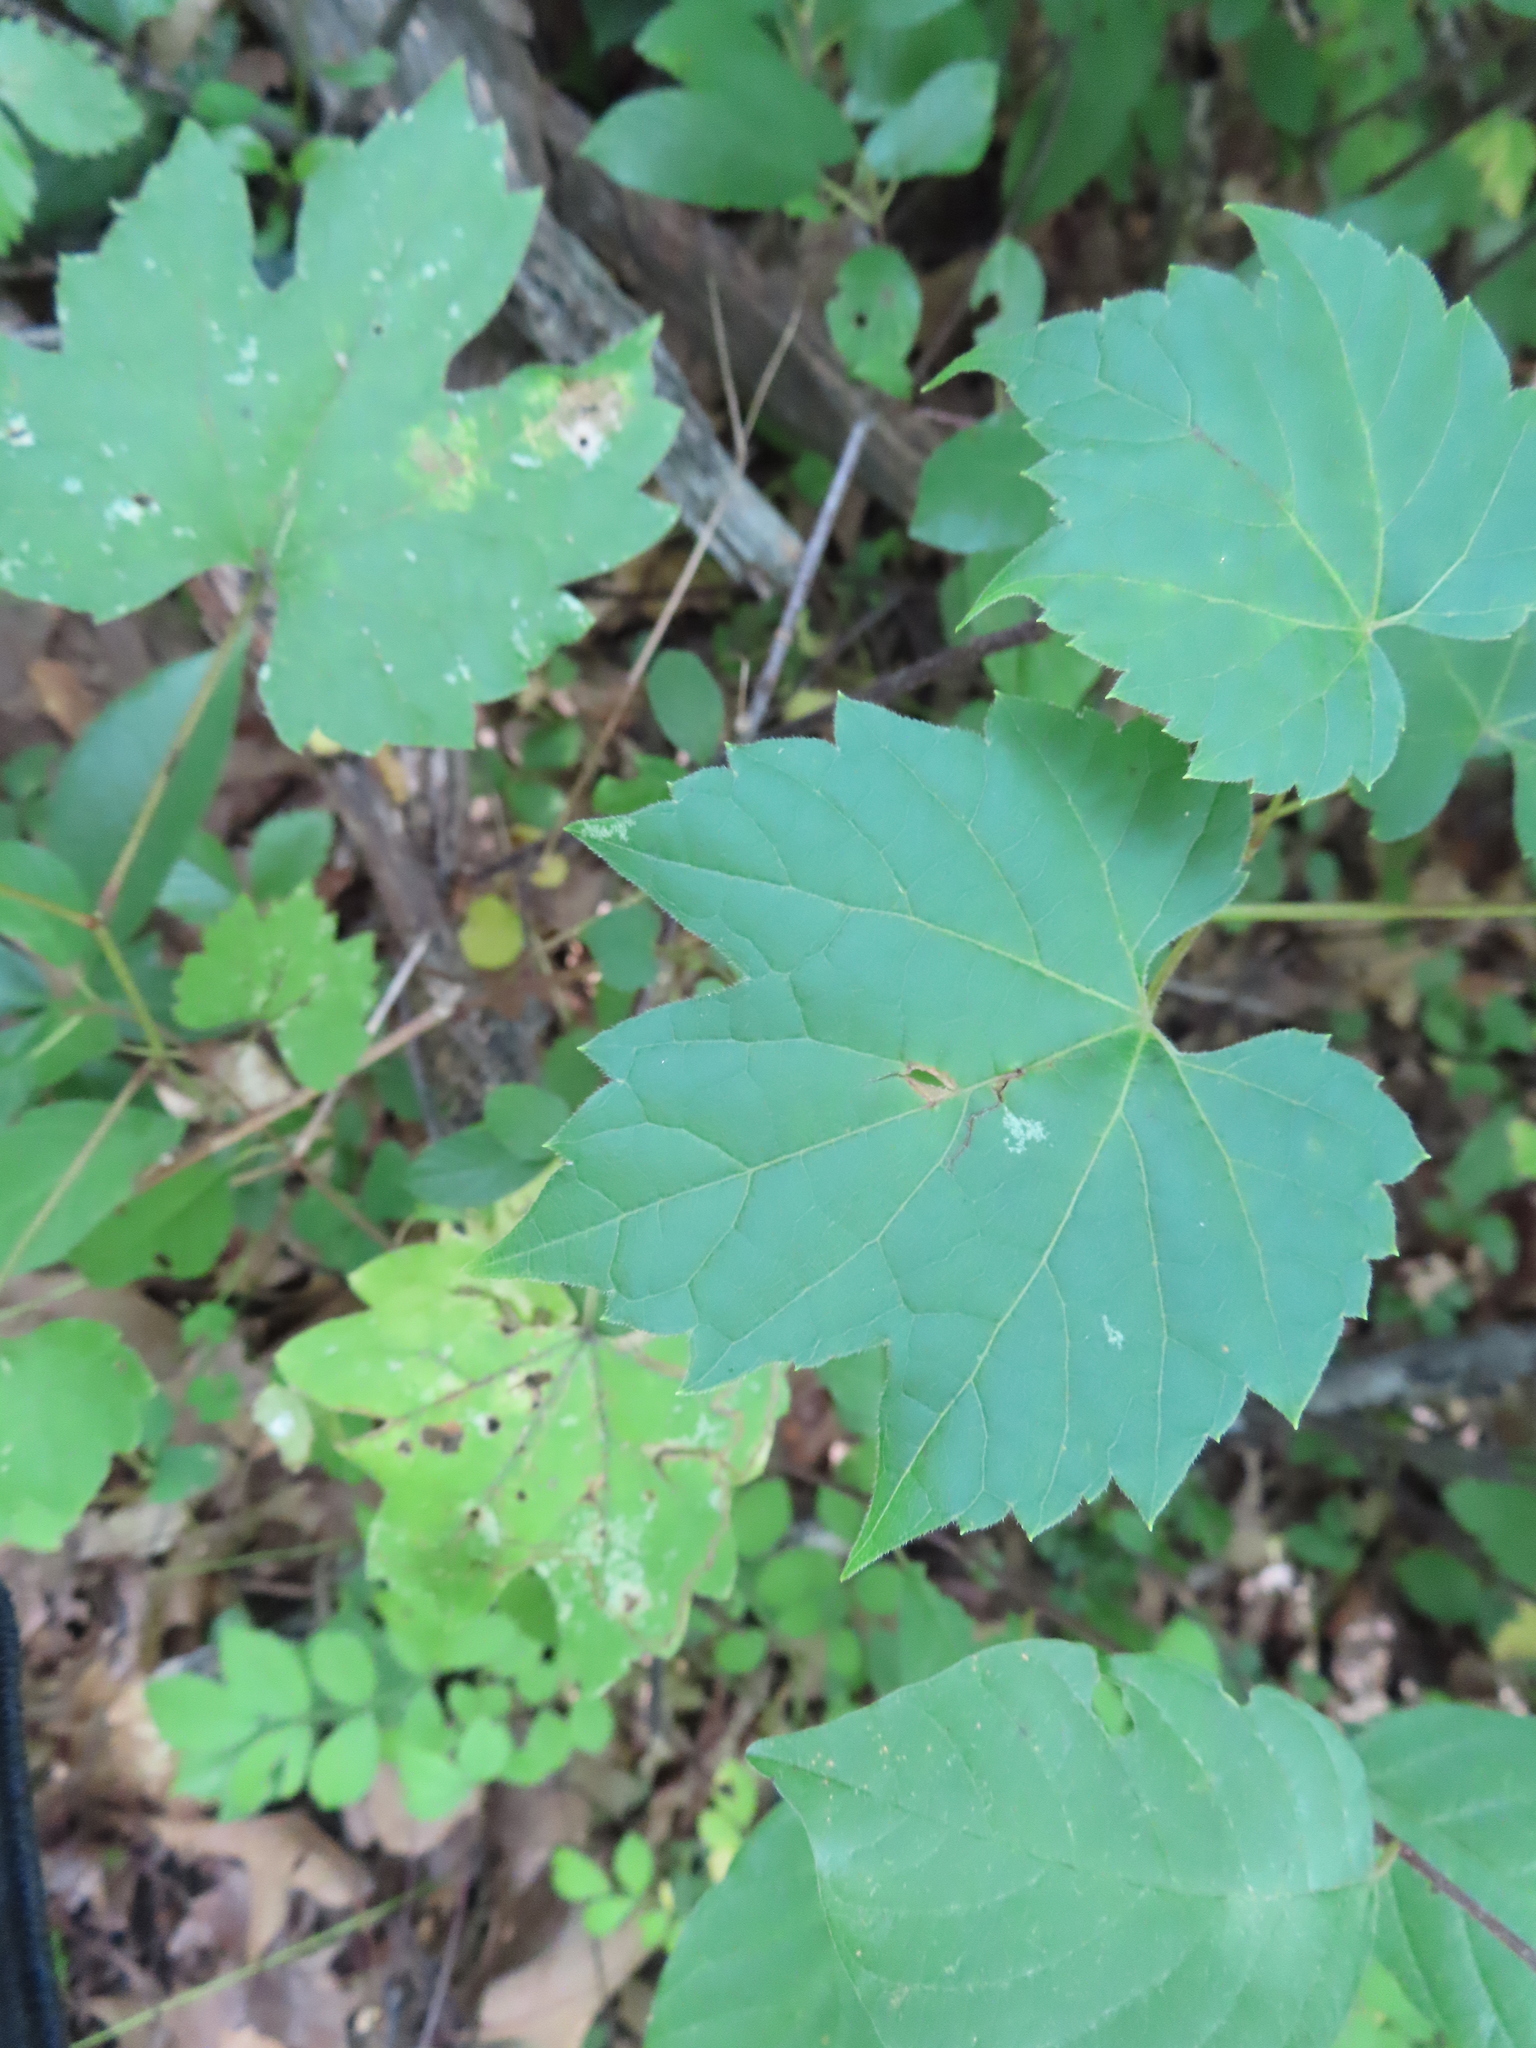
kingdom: Plantae
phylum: Tracheophyta
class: Magnoliopsida
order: Vitales
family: Vitaceae
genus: Vitis
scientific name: Vitis riparia
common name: Frost grape
